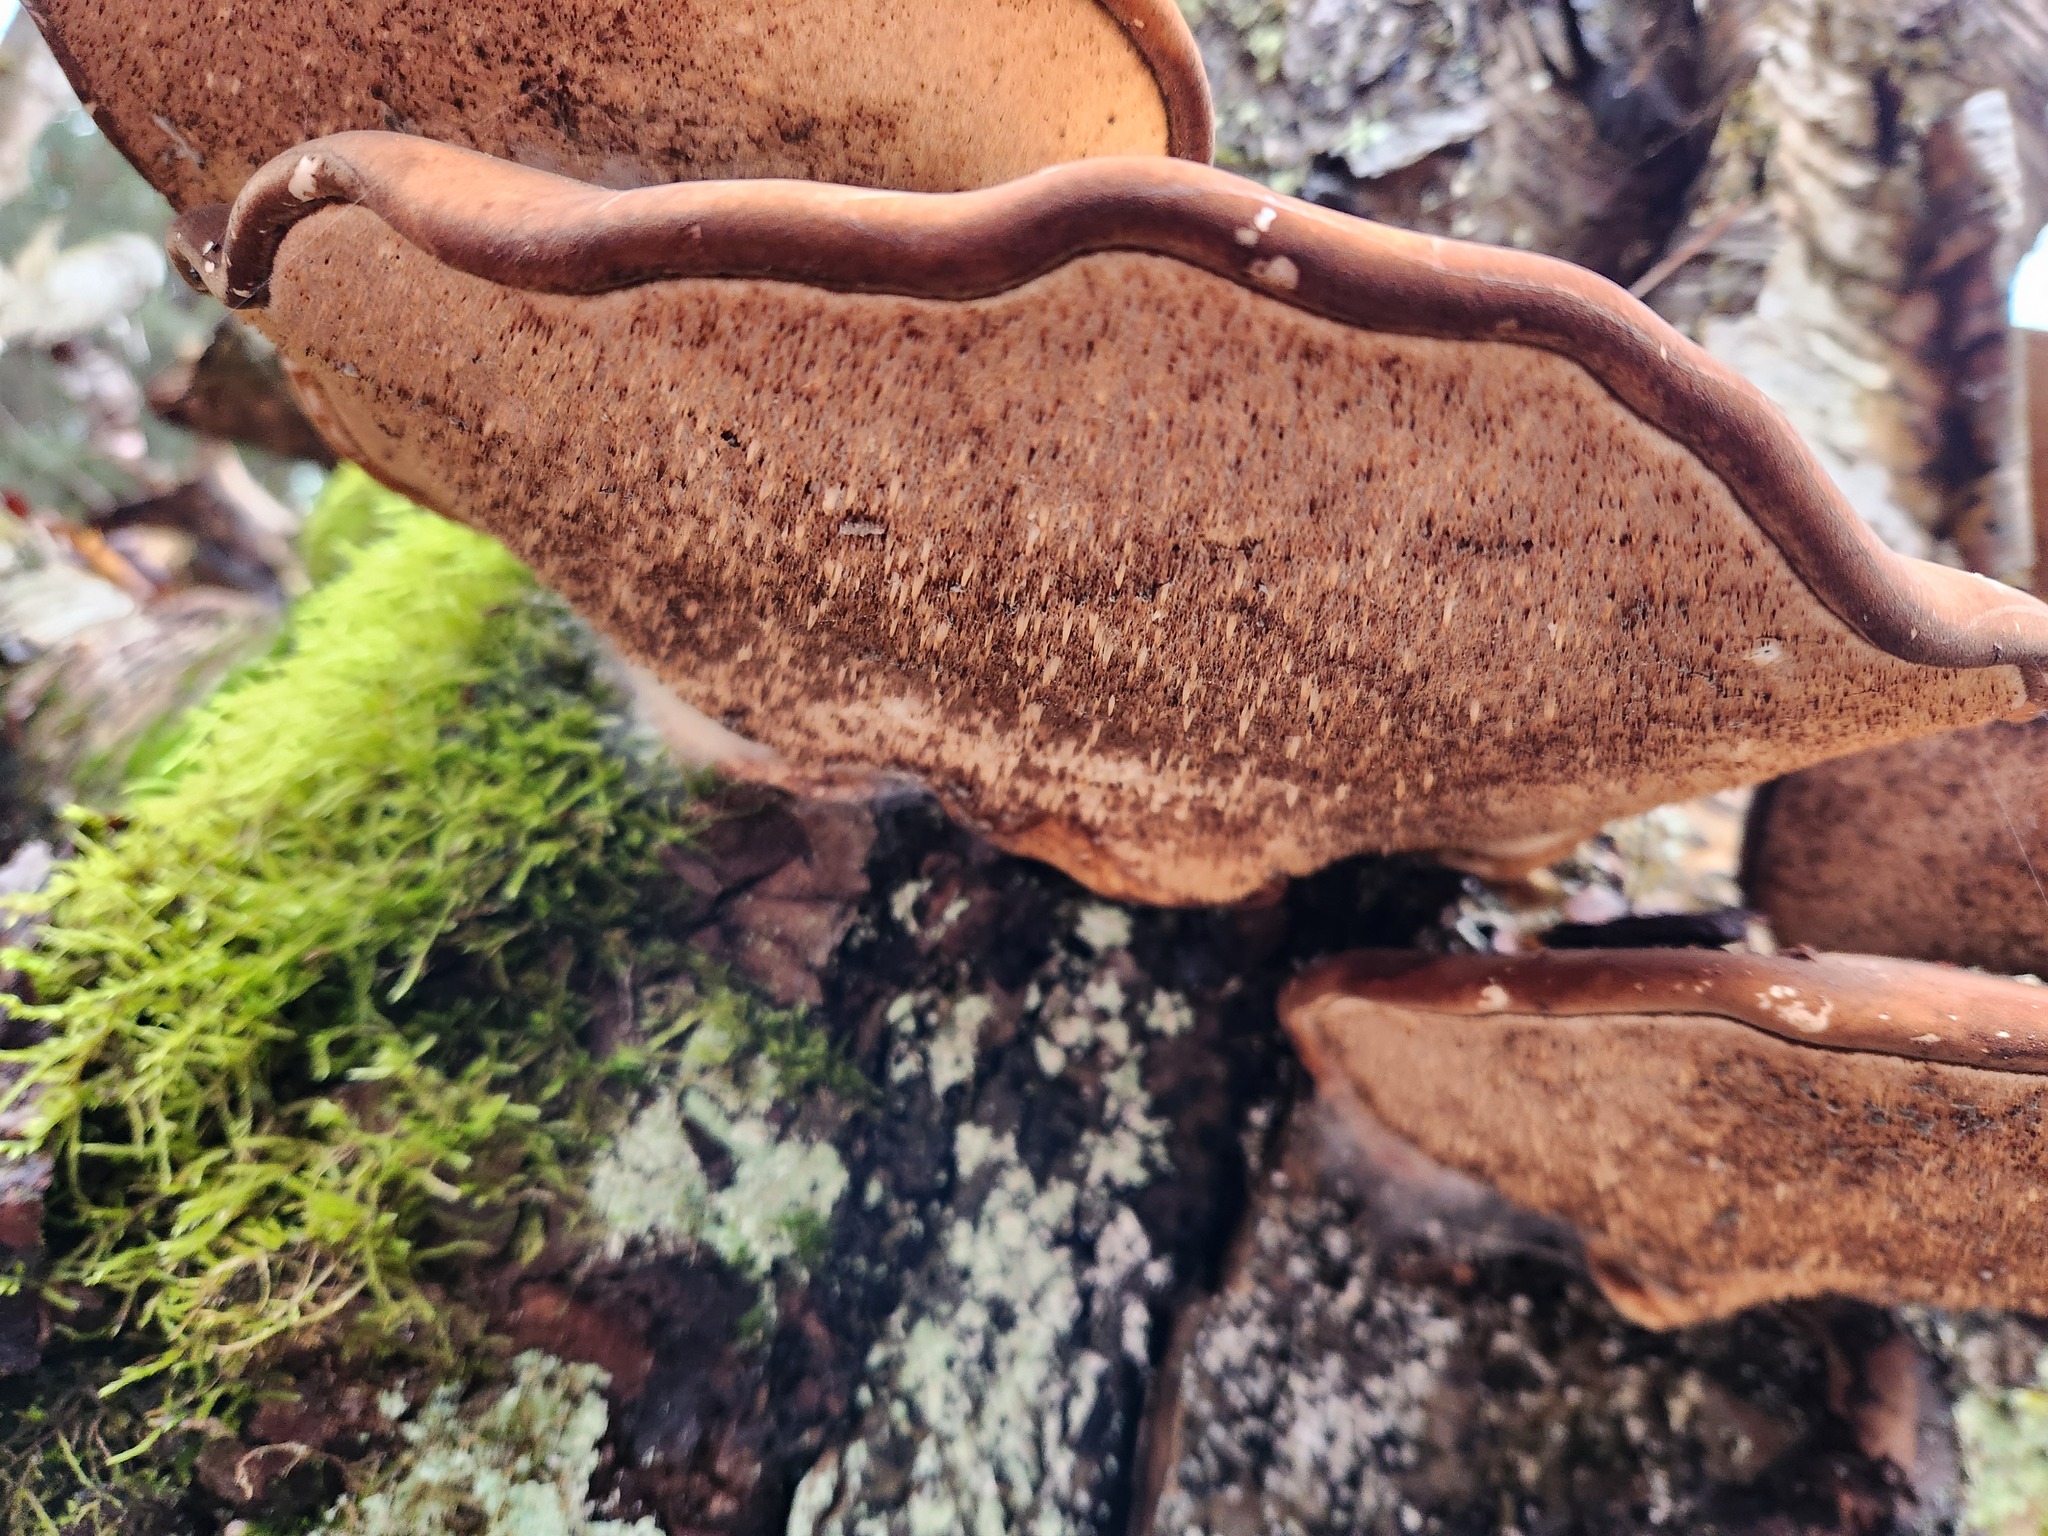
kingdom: Fungi
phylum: Basidiomycota
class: Agaricomycetes
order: Polyporales
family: Fomitopsidaceae
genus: Fomitopsis
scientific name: Fomitopsis betulina
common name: Birch polypore
